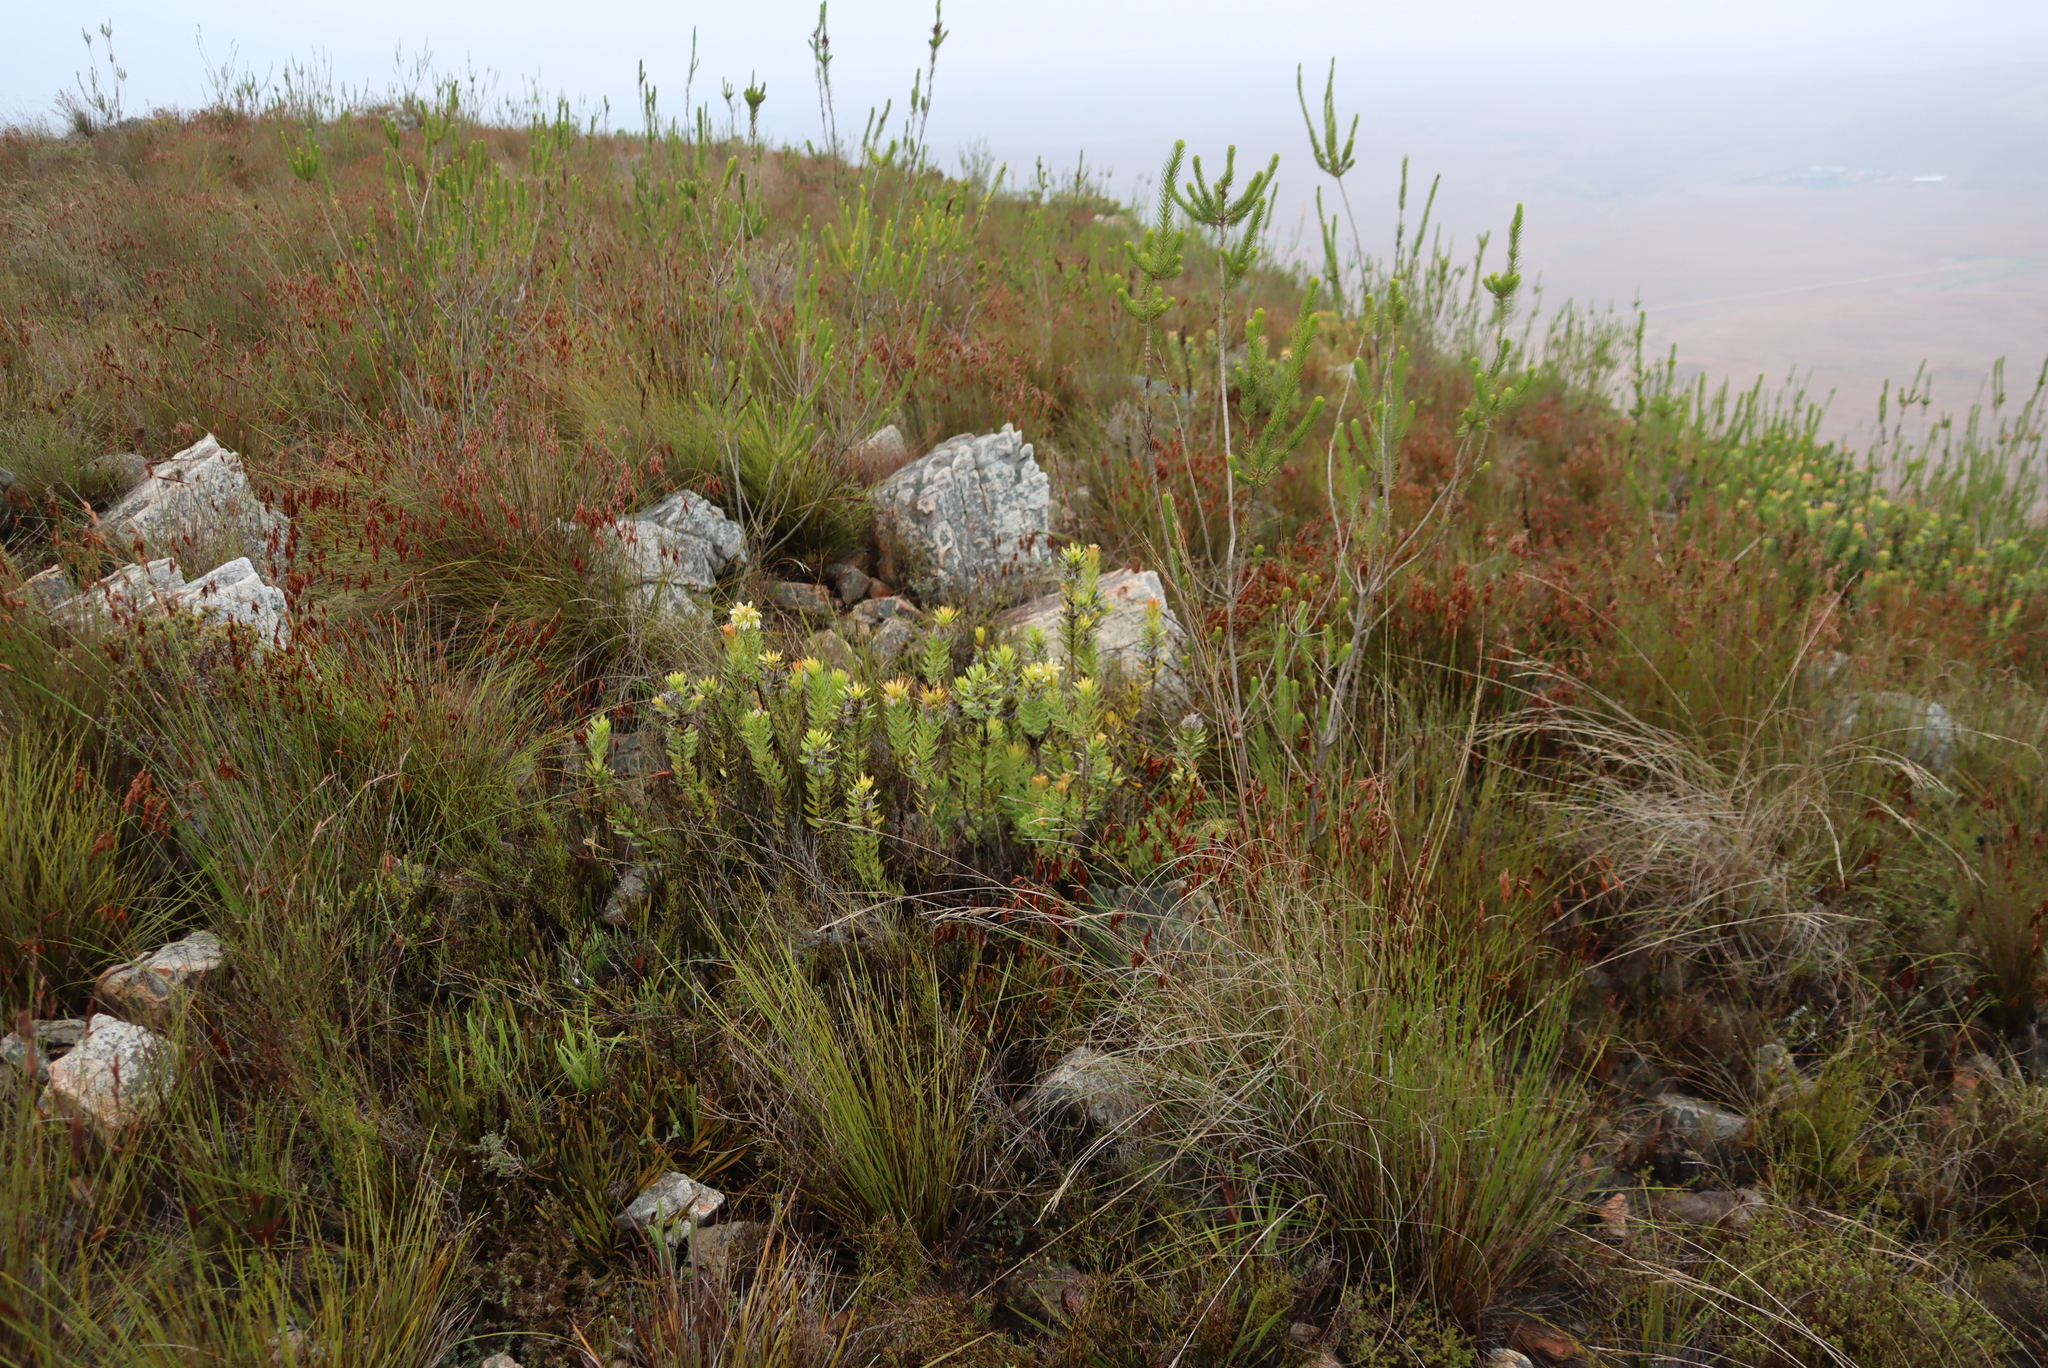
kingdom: Plantae
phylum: Tracheophyta
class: Magnoliopsida
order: Ericales
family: Ericaceae
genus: Erica
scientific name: Erica viscaria
